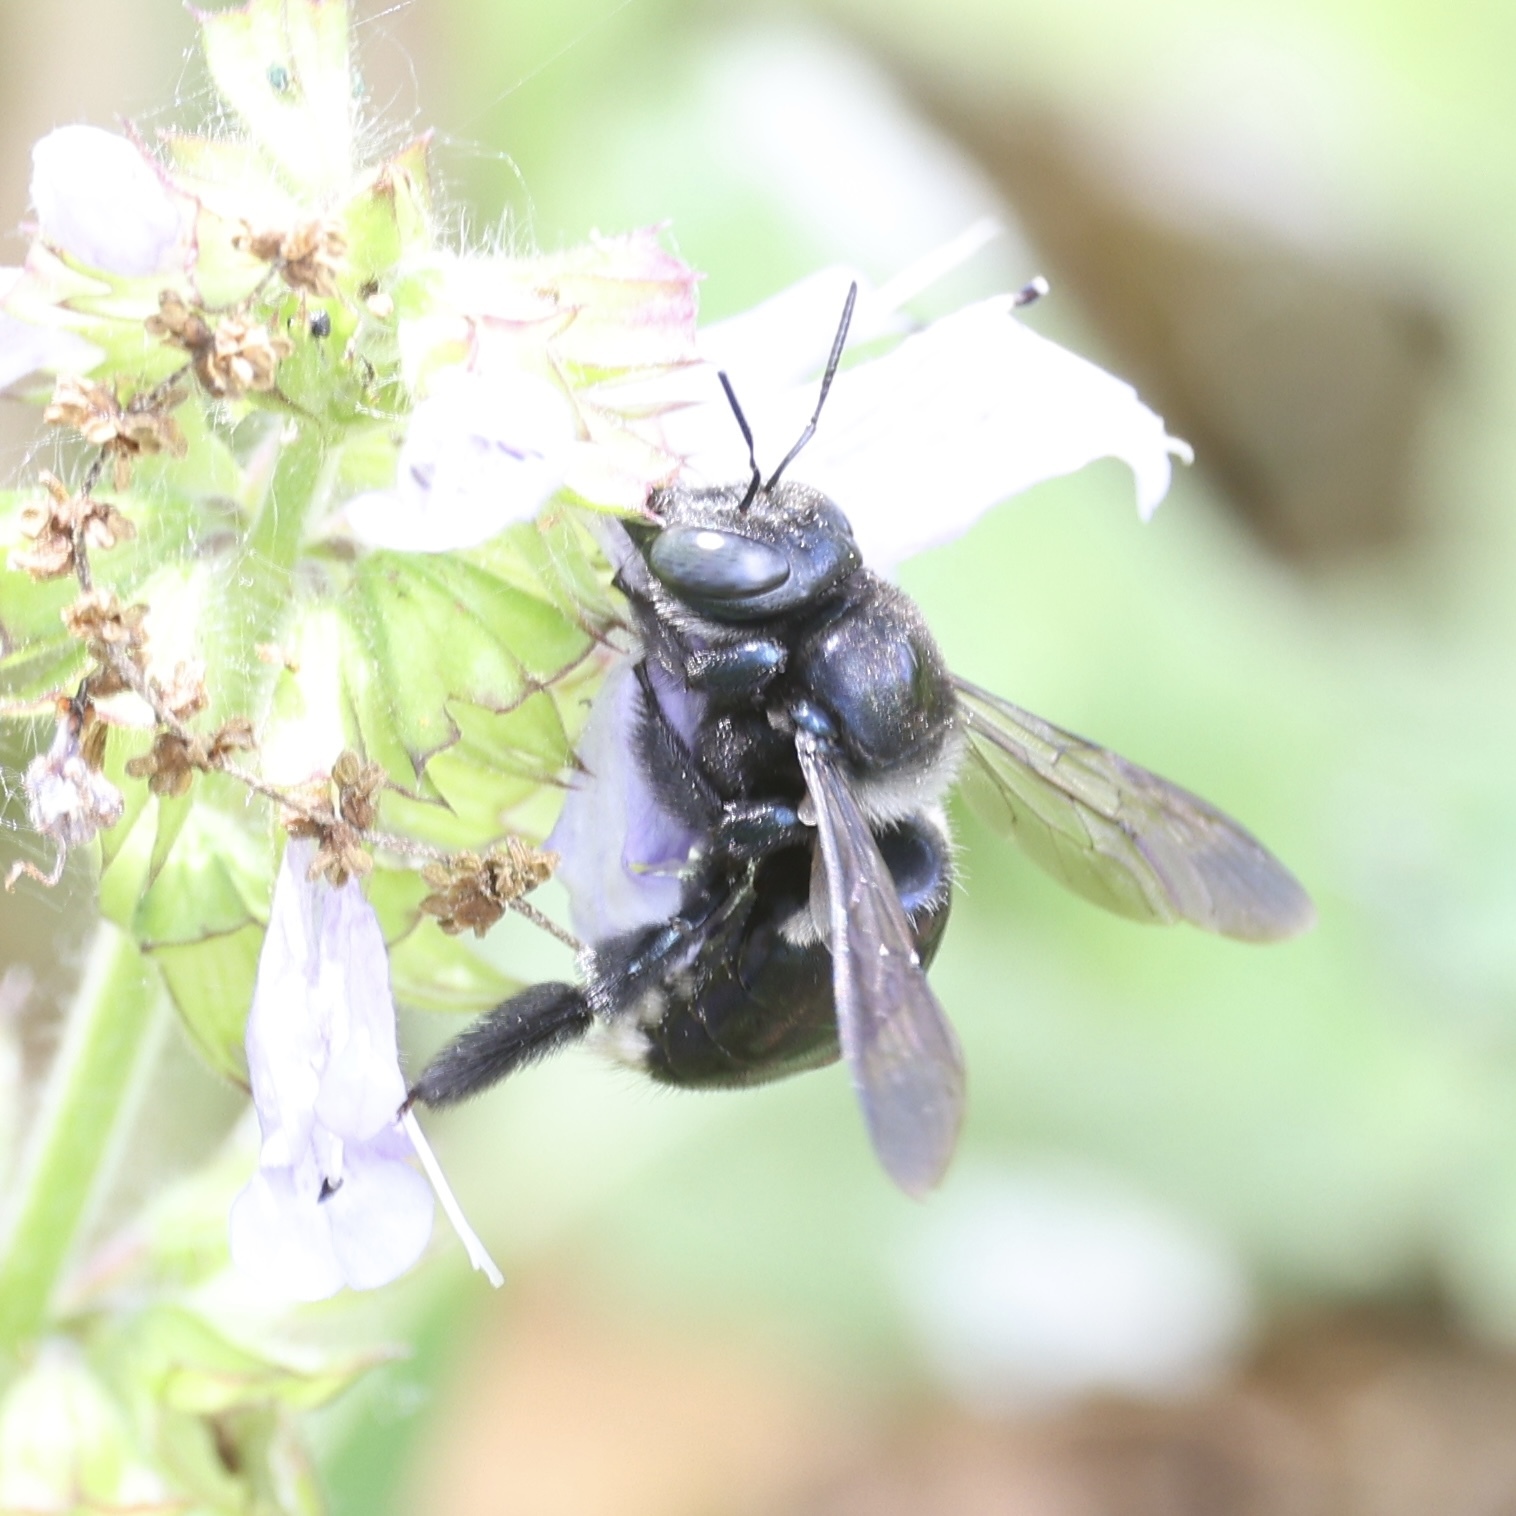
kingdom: Animalia
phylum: Arthropoda
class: Insecta
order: Hymenoptera
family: Apidae
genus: Xylocopa
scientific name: Xylocopa micans
